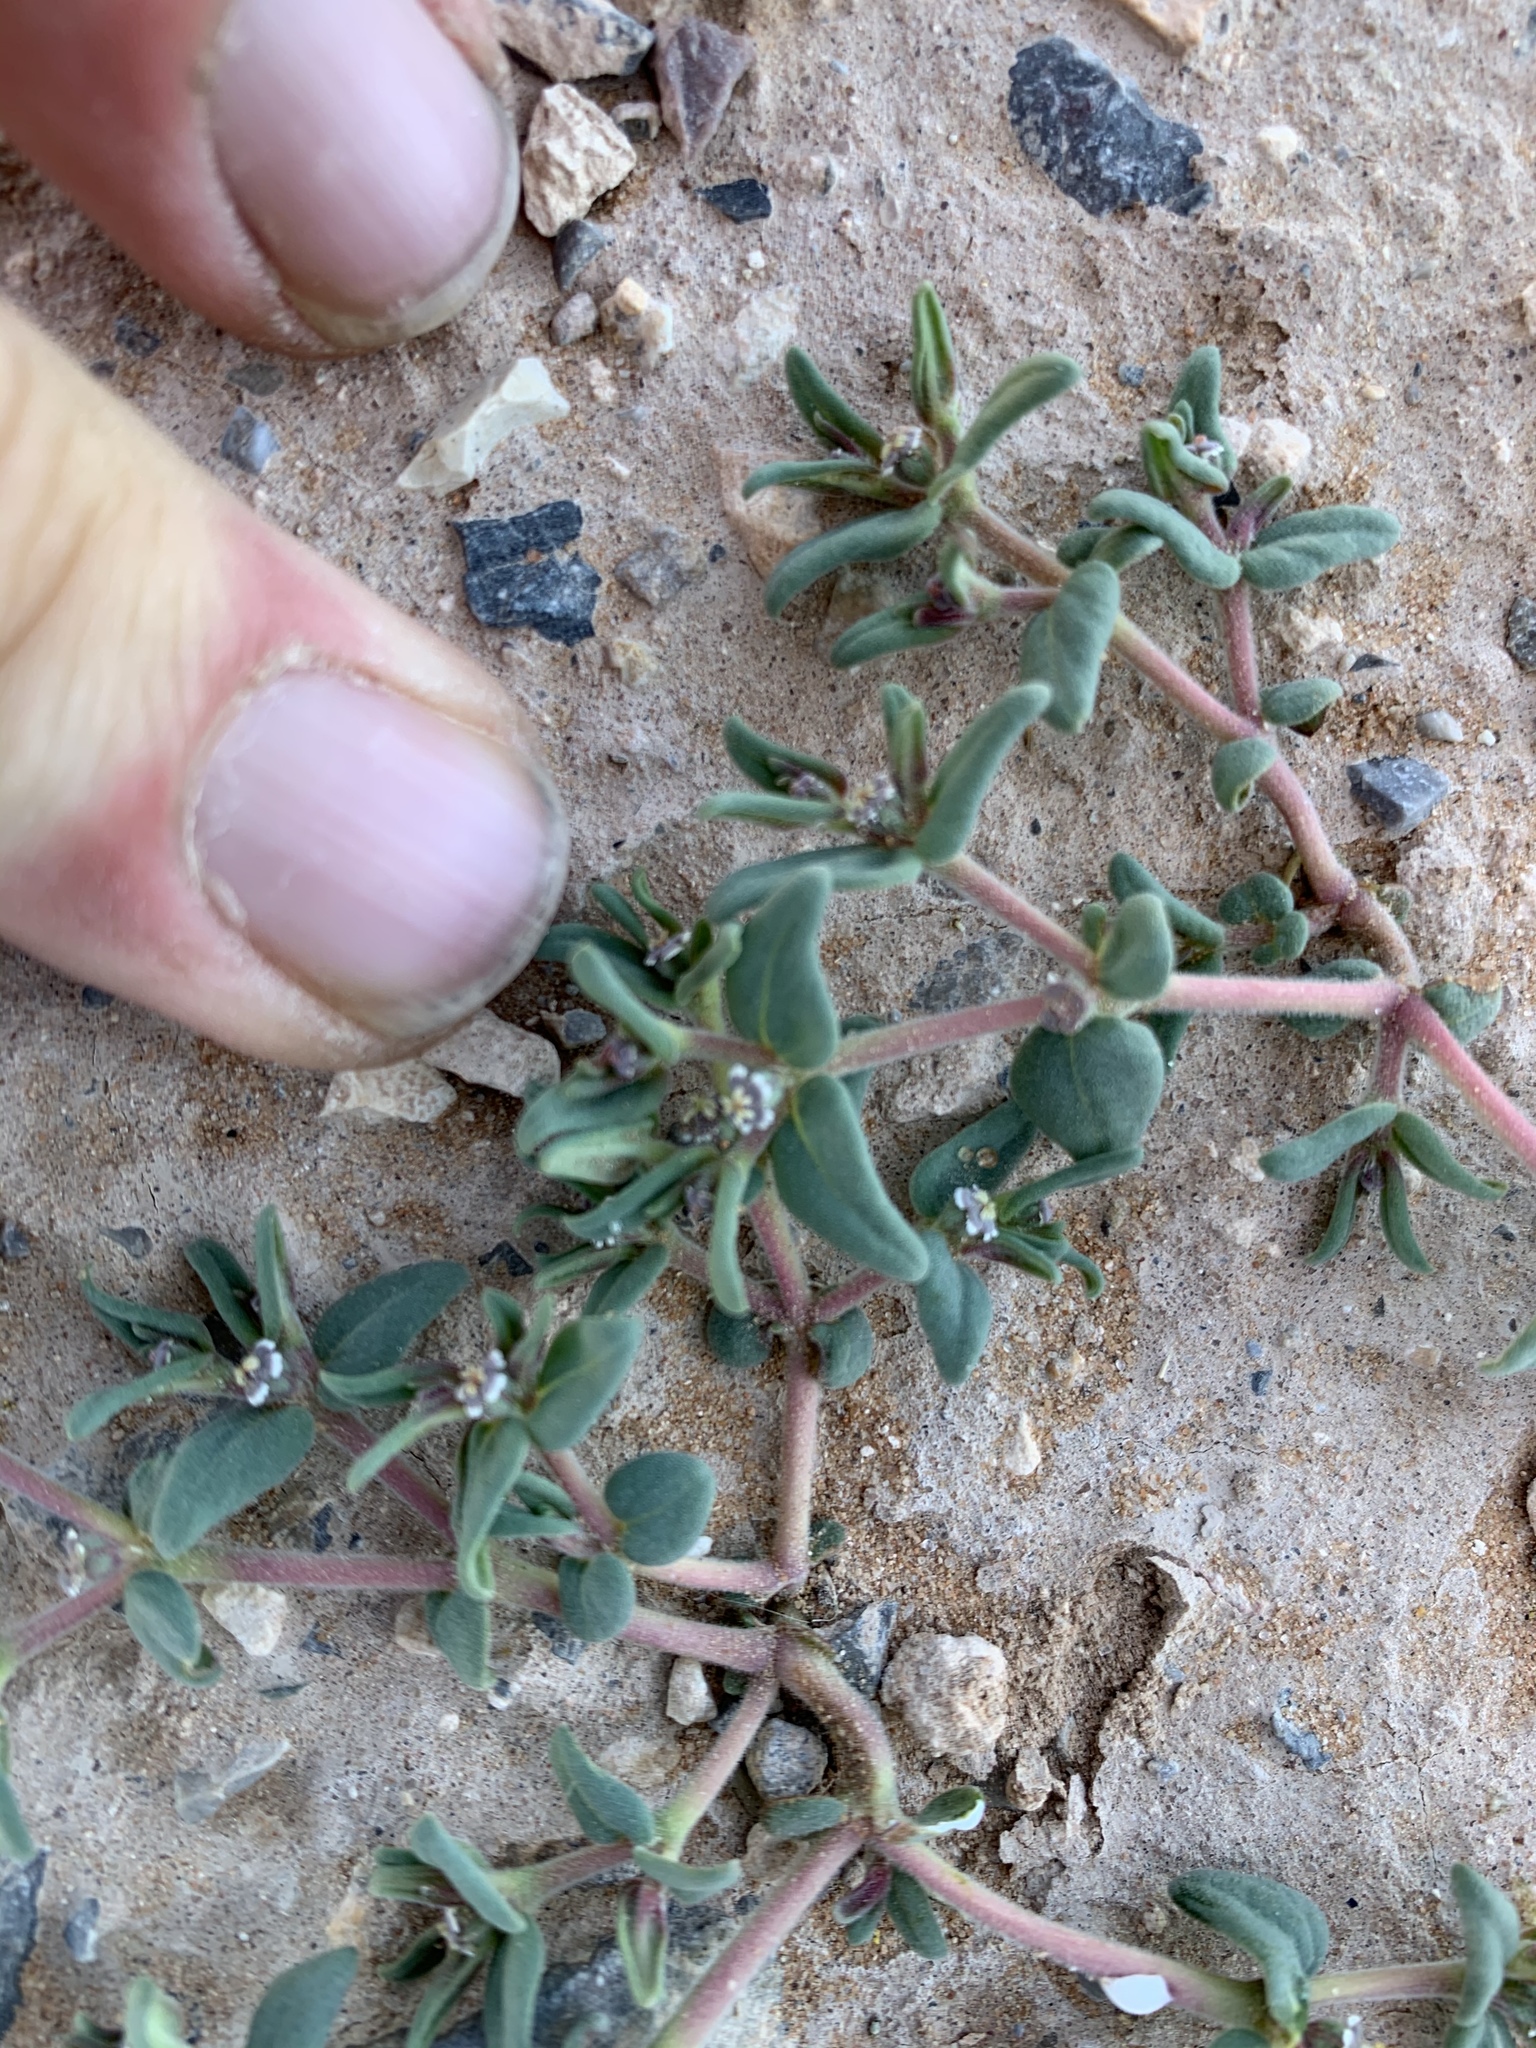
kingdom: Plantae
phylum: Tracheophyta
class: Magnoliopsida
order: Malpighiales
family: Euphorbiaceae
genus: Euphorbia
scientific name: Euphorbia lata
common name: Hoary euphorbia
